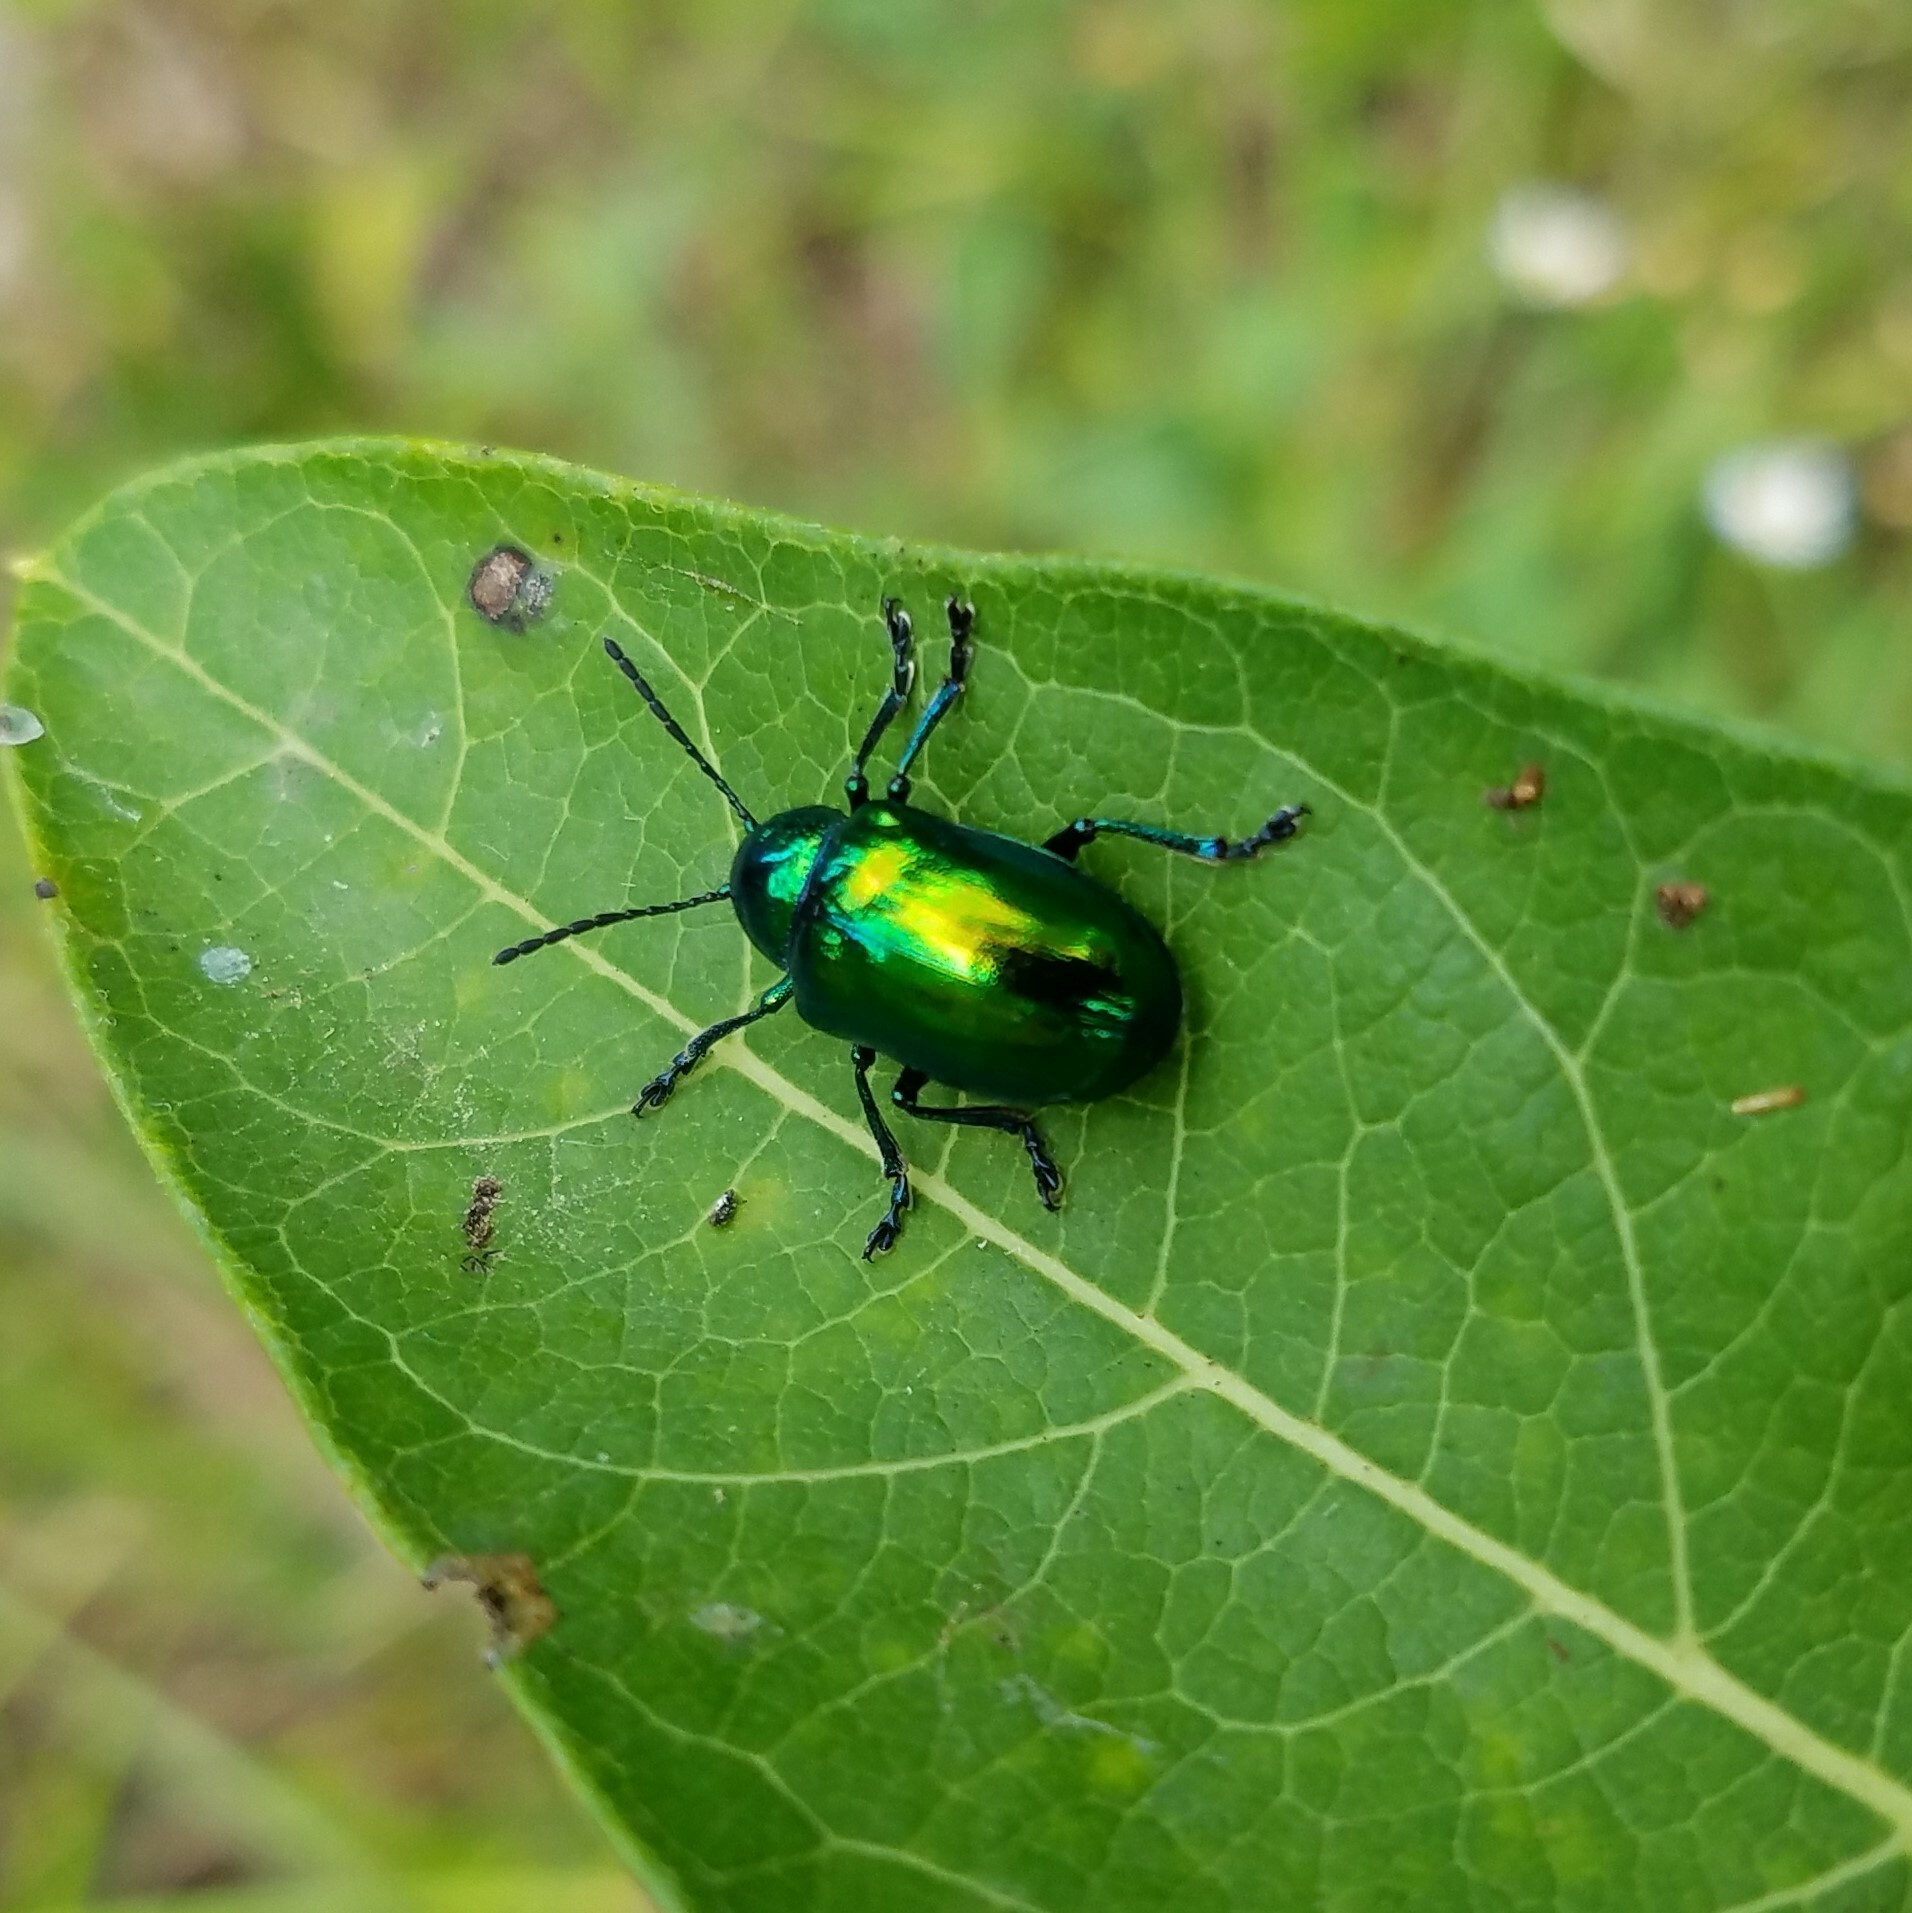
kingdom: Animalia
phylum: Arthropoda
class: Insecta
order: Coleoptera
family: Chrysomelidae
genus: Chrysochus
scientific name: Chrysochus auratus
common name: Dogbane leaf beetle
